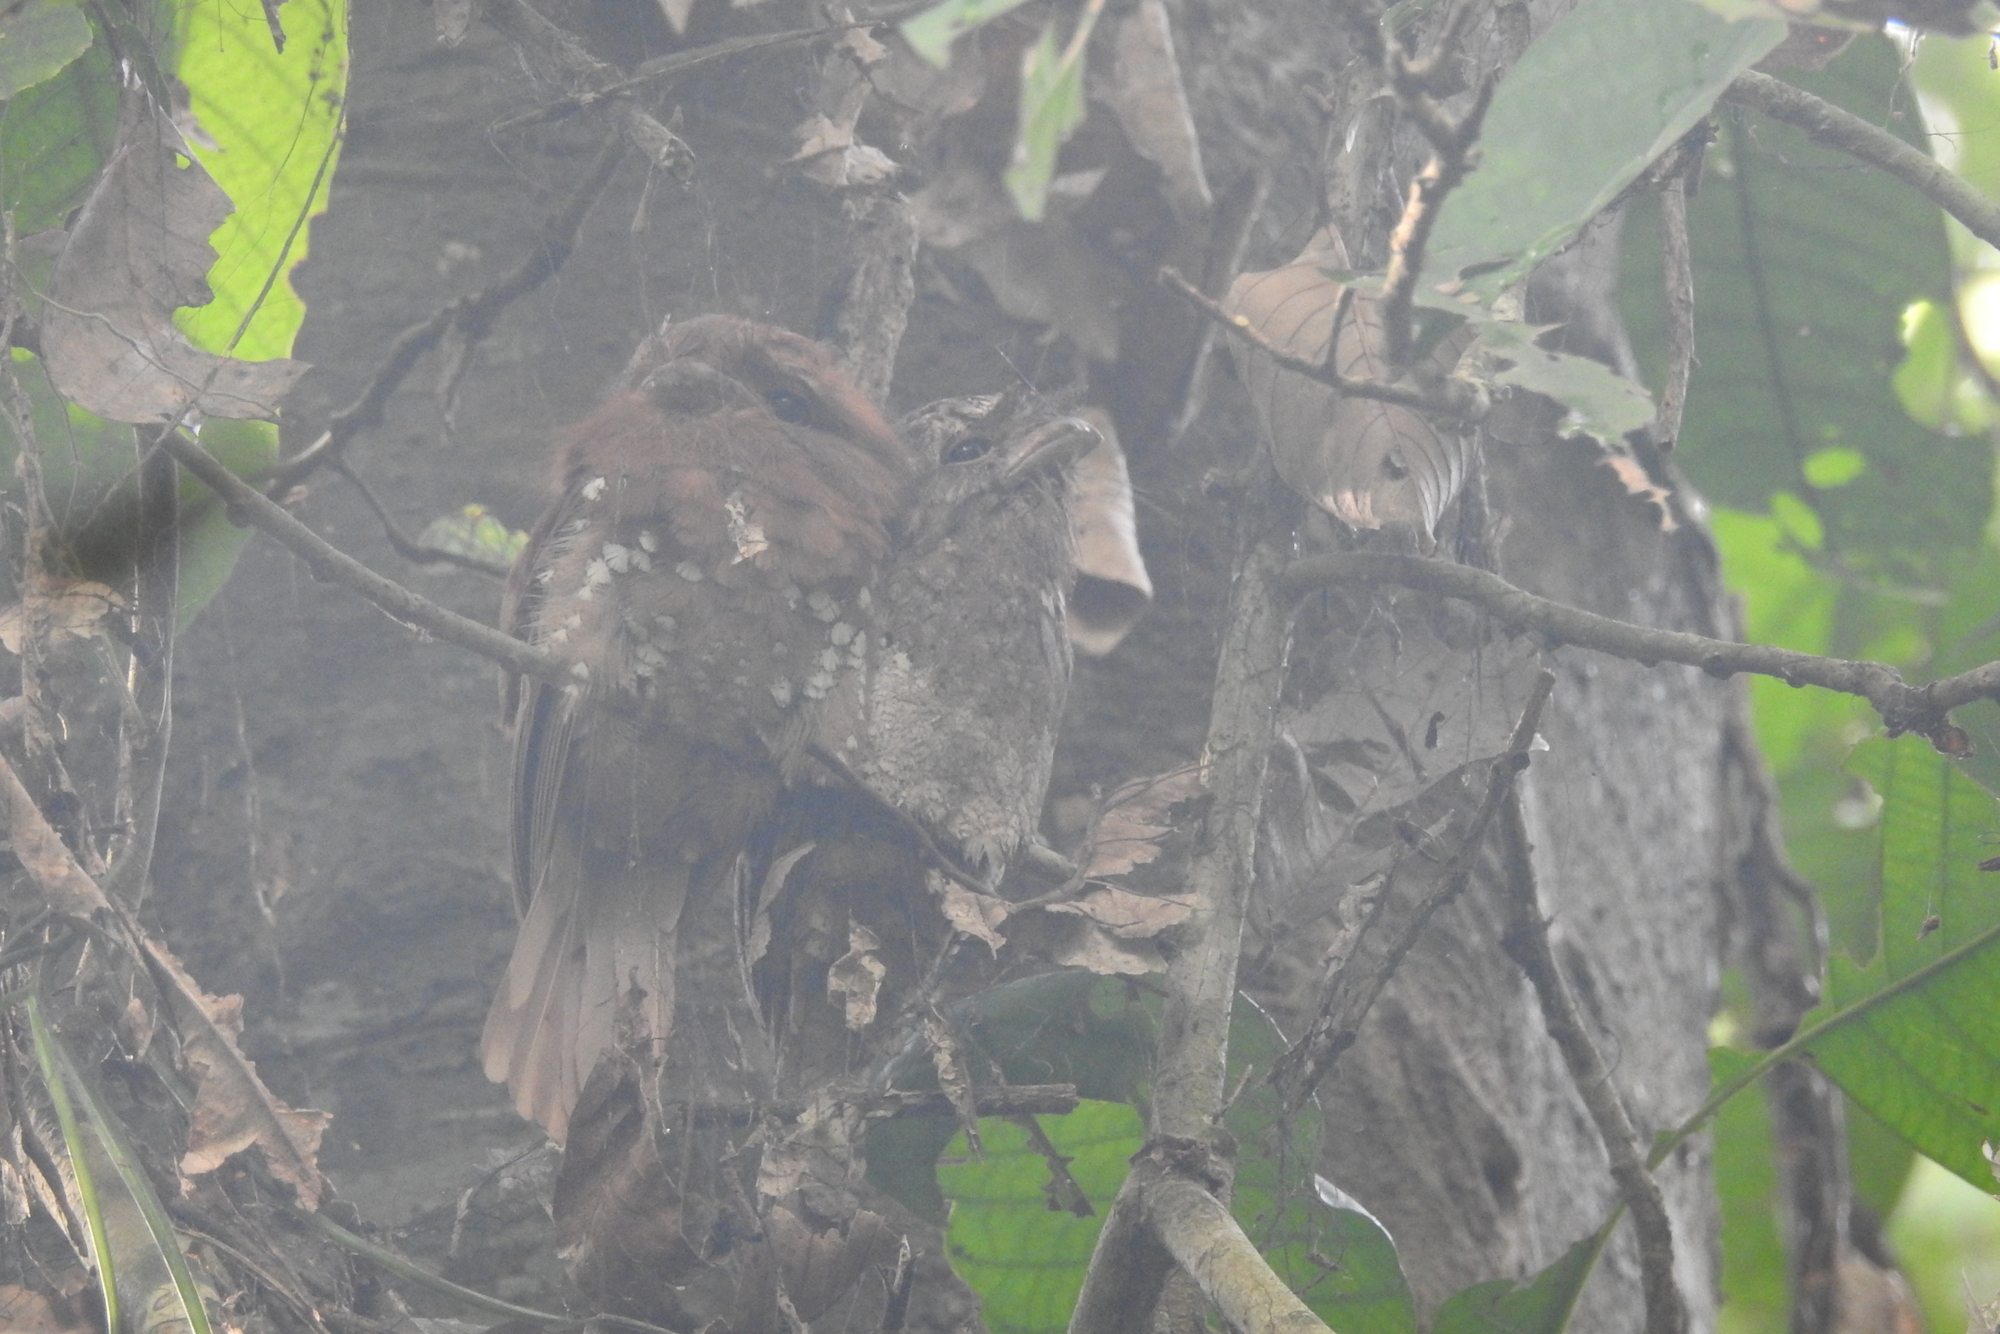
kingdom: Animalia
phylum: Chordata
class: Aves
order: Caprimulgiformes
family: Podargidae
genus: Batrachostomus
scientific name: Batrachostomus moniliger
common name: Sri lanka frogmouth
